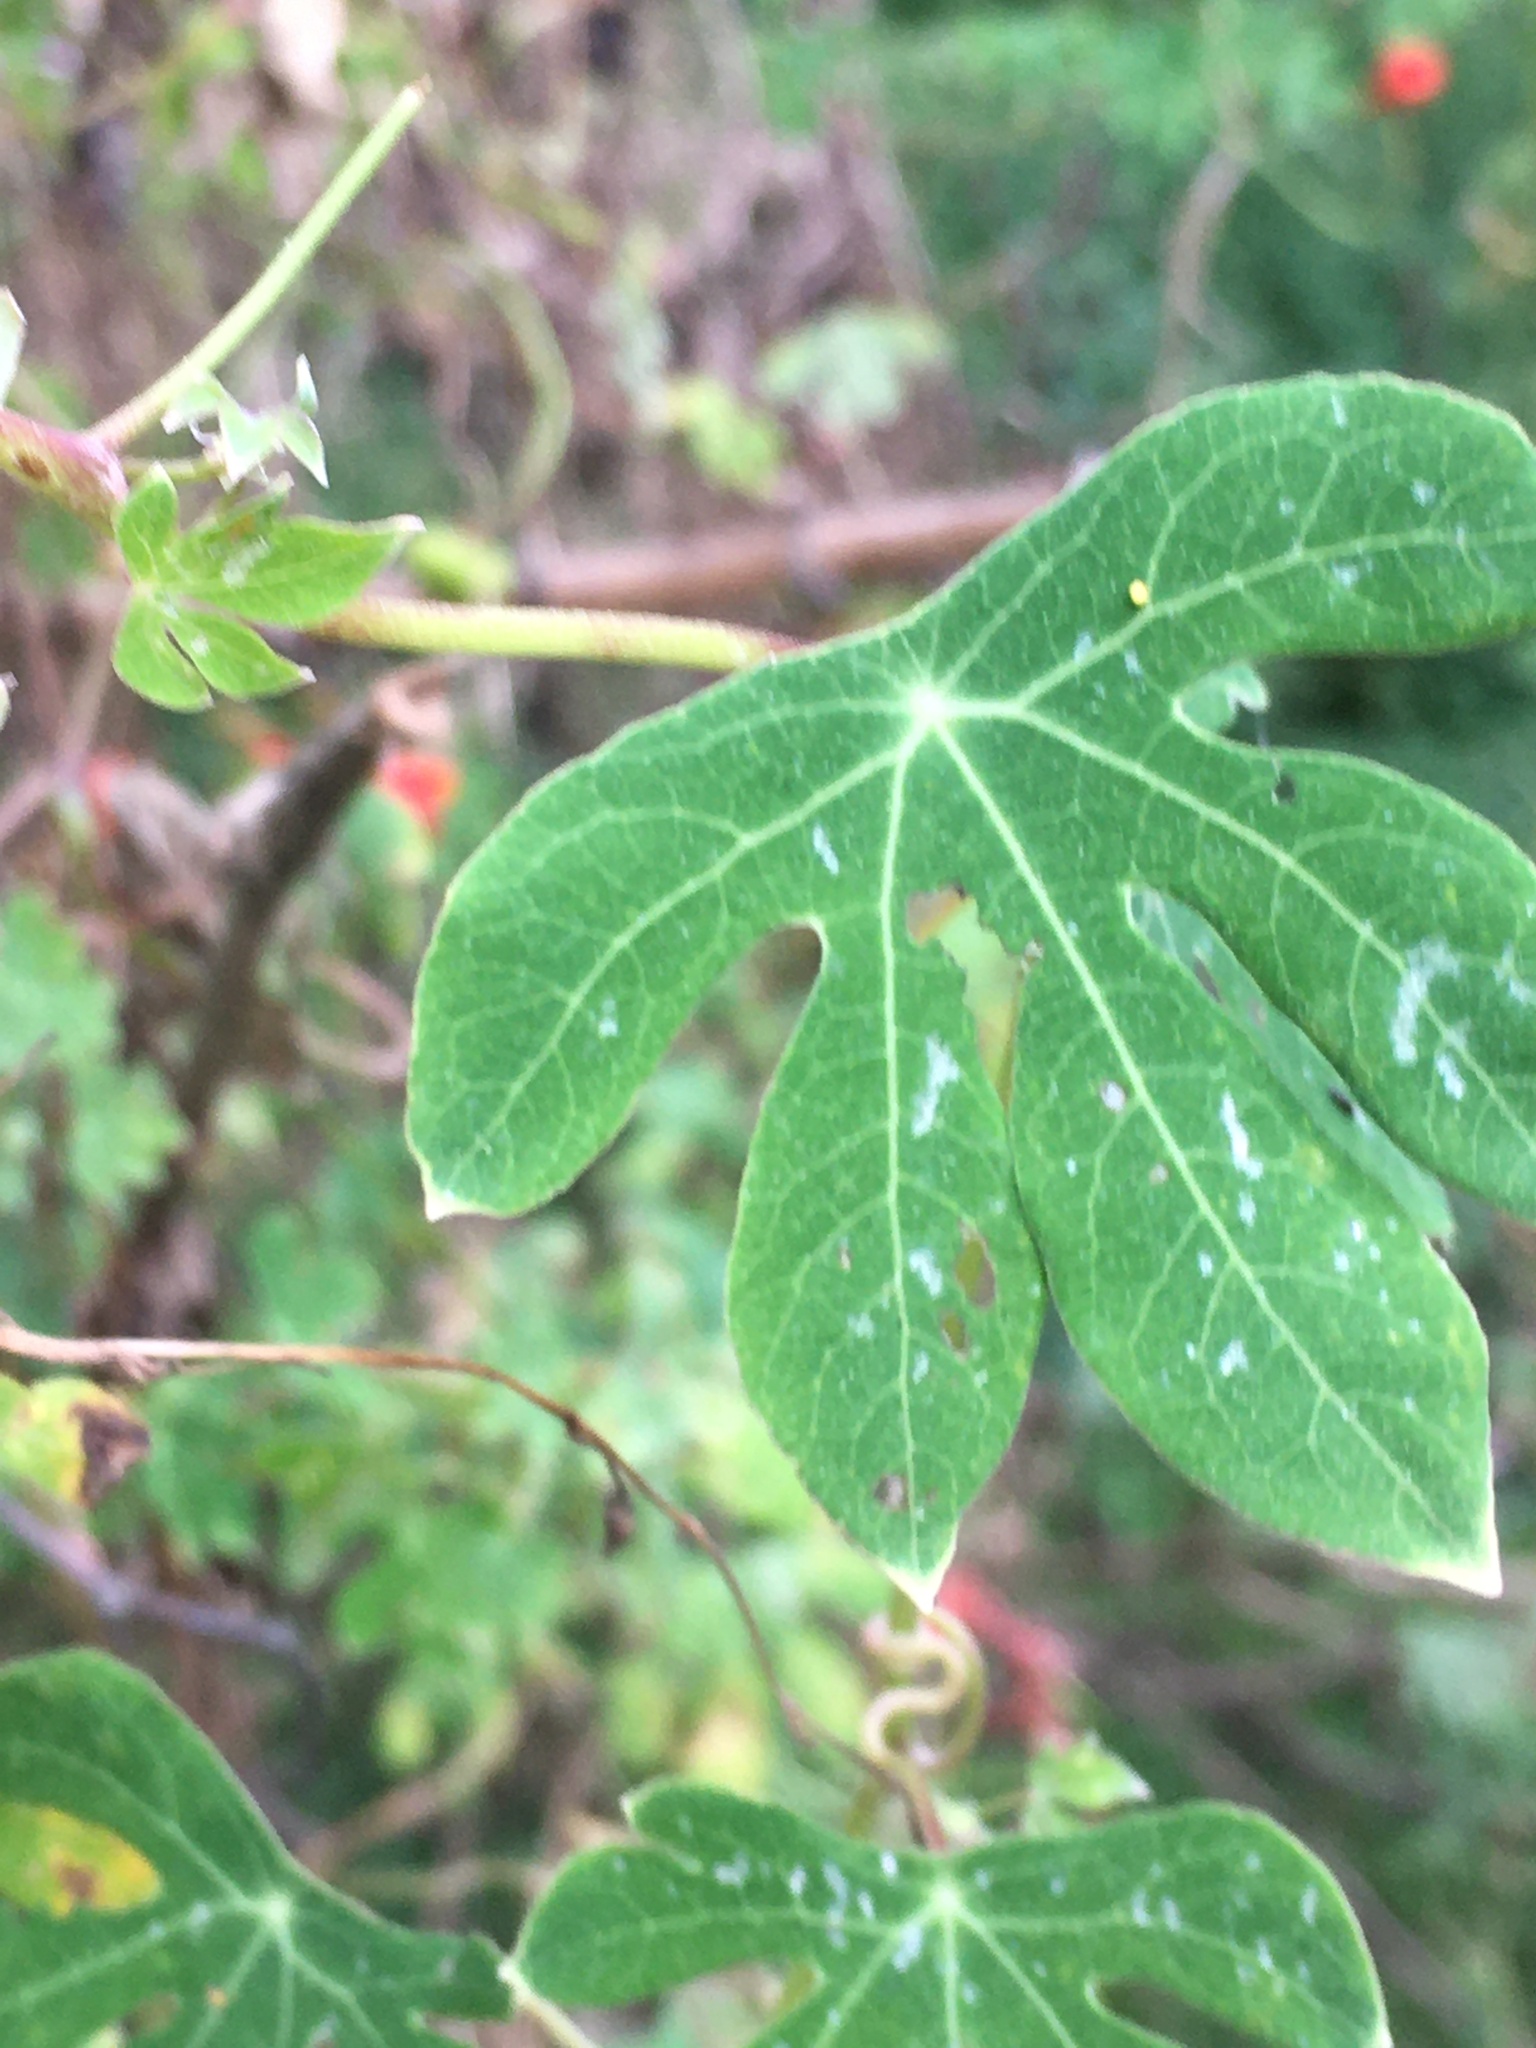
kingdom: Plantae
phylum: Tracheophyta
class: Magnoliopsida
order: Brassicales
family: Tropaeolaceae
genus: Tropaeolum
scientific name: Tropaeolum smithii
